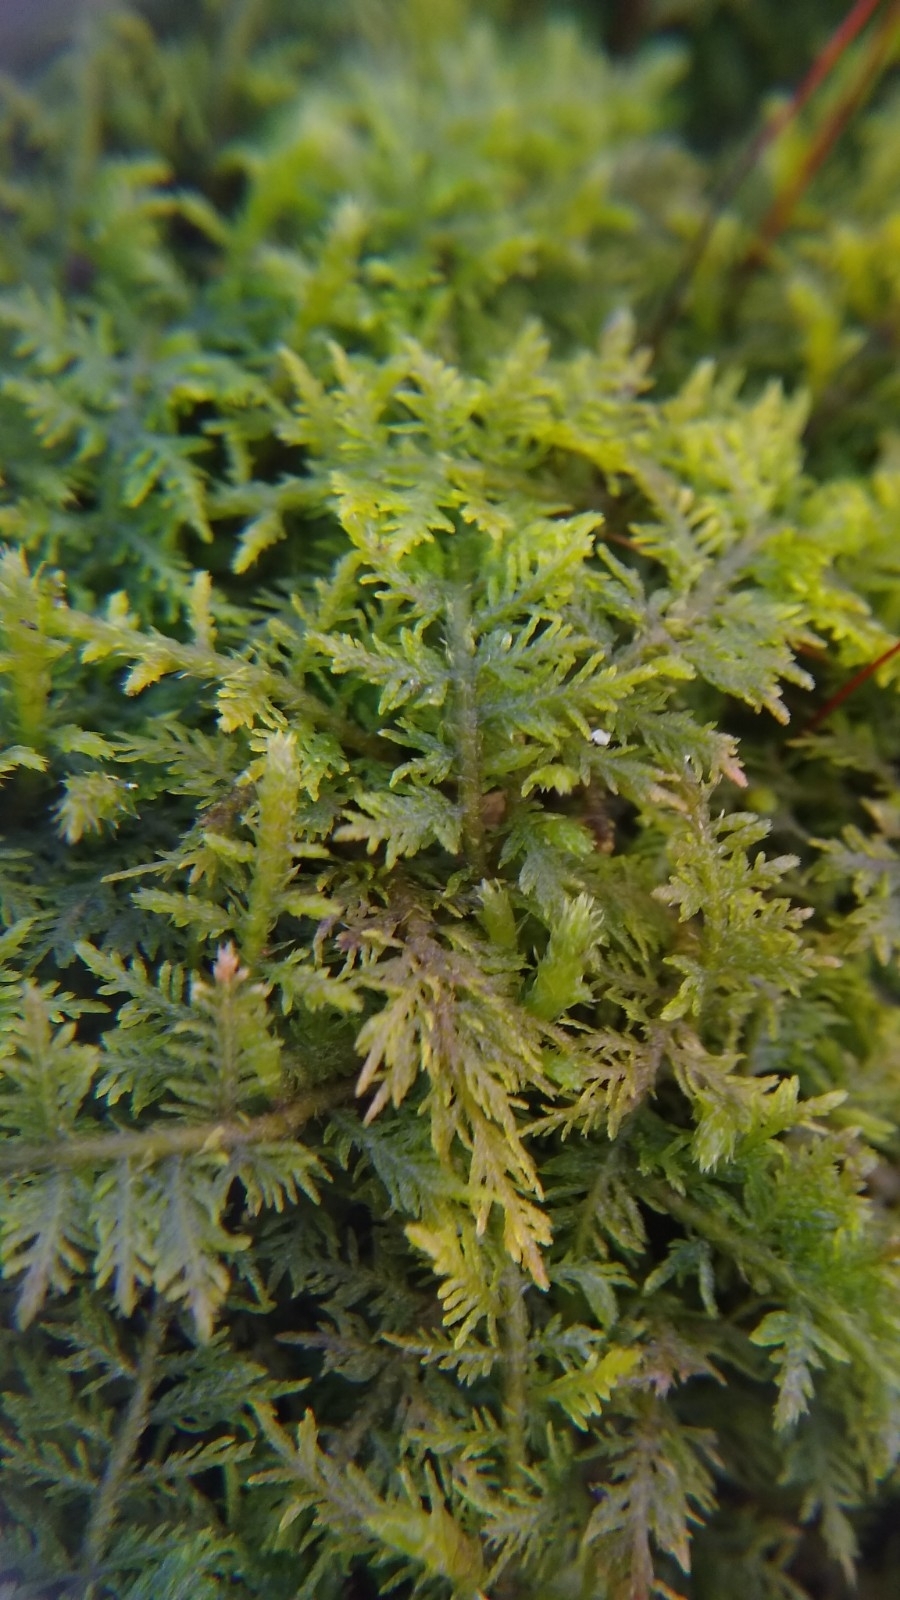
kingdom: Plantae
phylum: Bryophyta
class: Bryopsida
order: Hypnales
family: Thuidiaceae
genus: Thuidium
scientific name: Thuidium delicatulum
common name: Delicate fern moss
